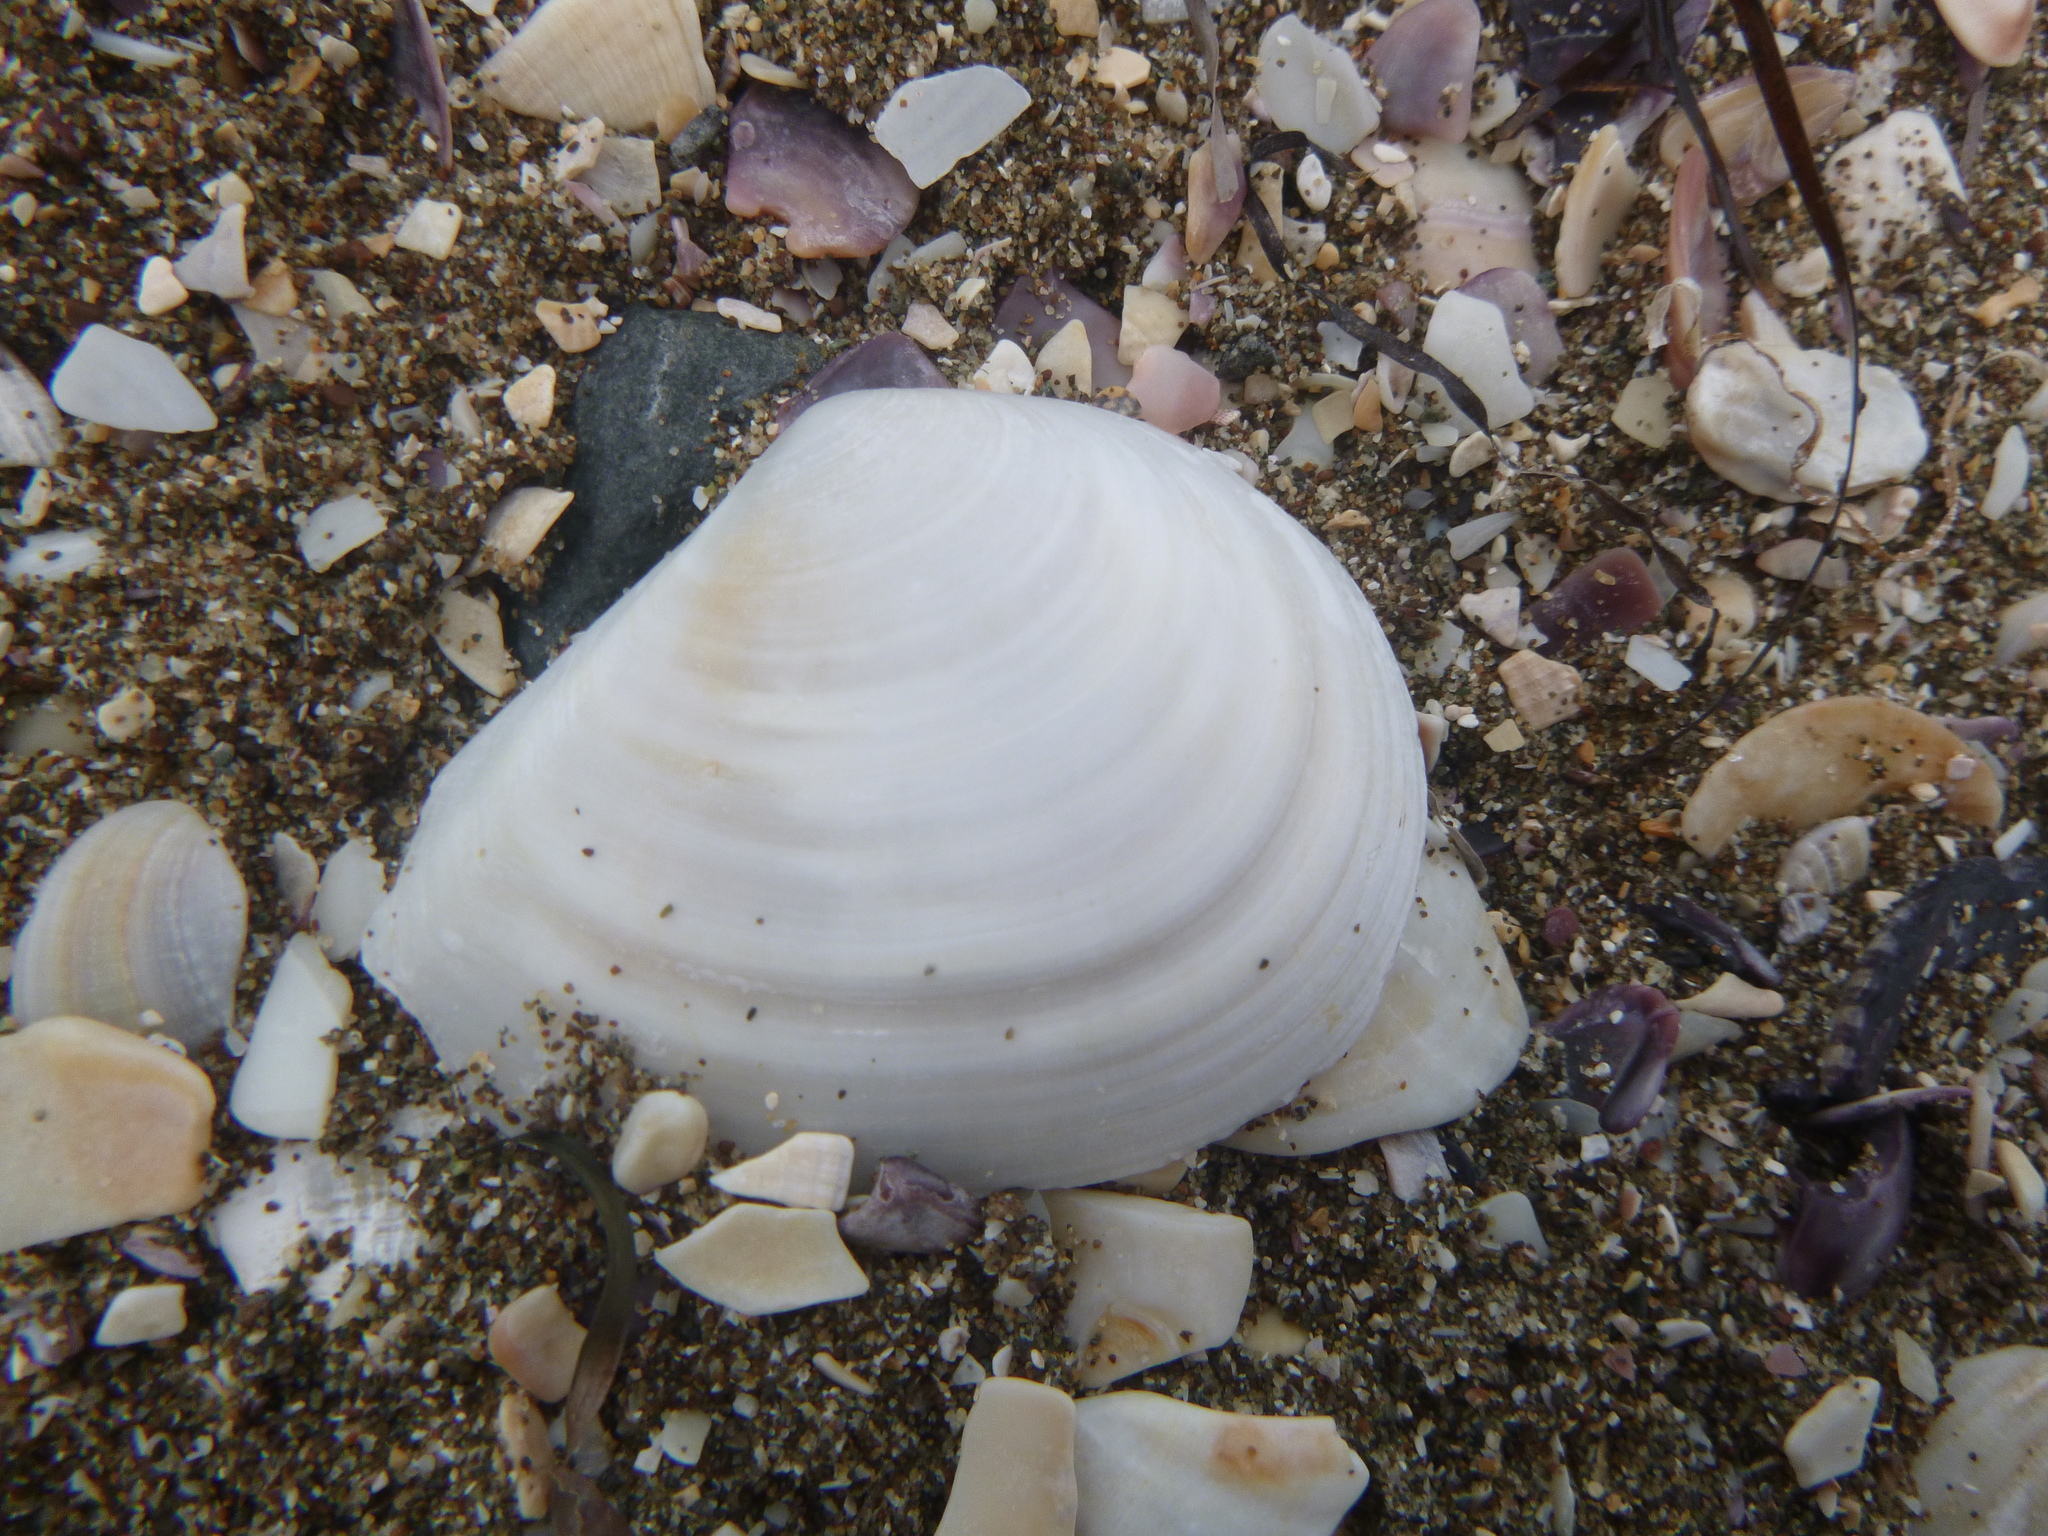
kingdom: Animalia
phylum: Mollusca
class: Bivalvia
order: Cardiida
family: Tellinidae
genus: Macomona
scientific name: Macomona liliana
